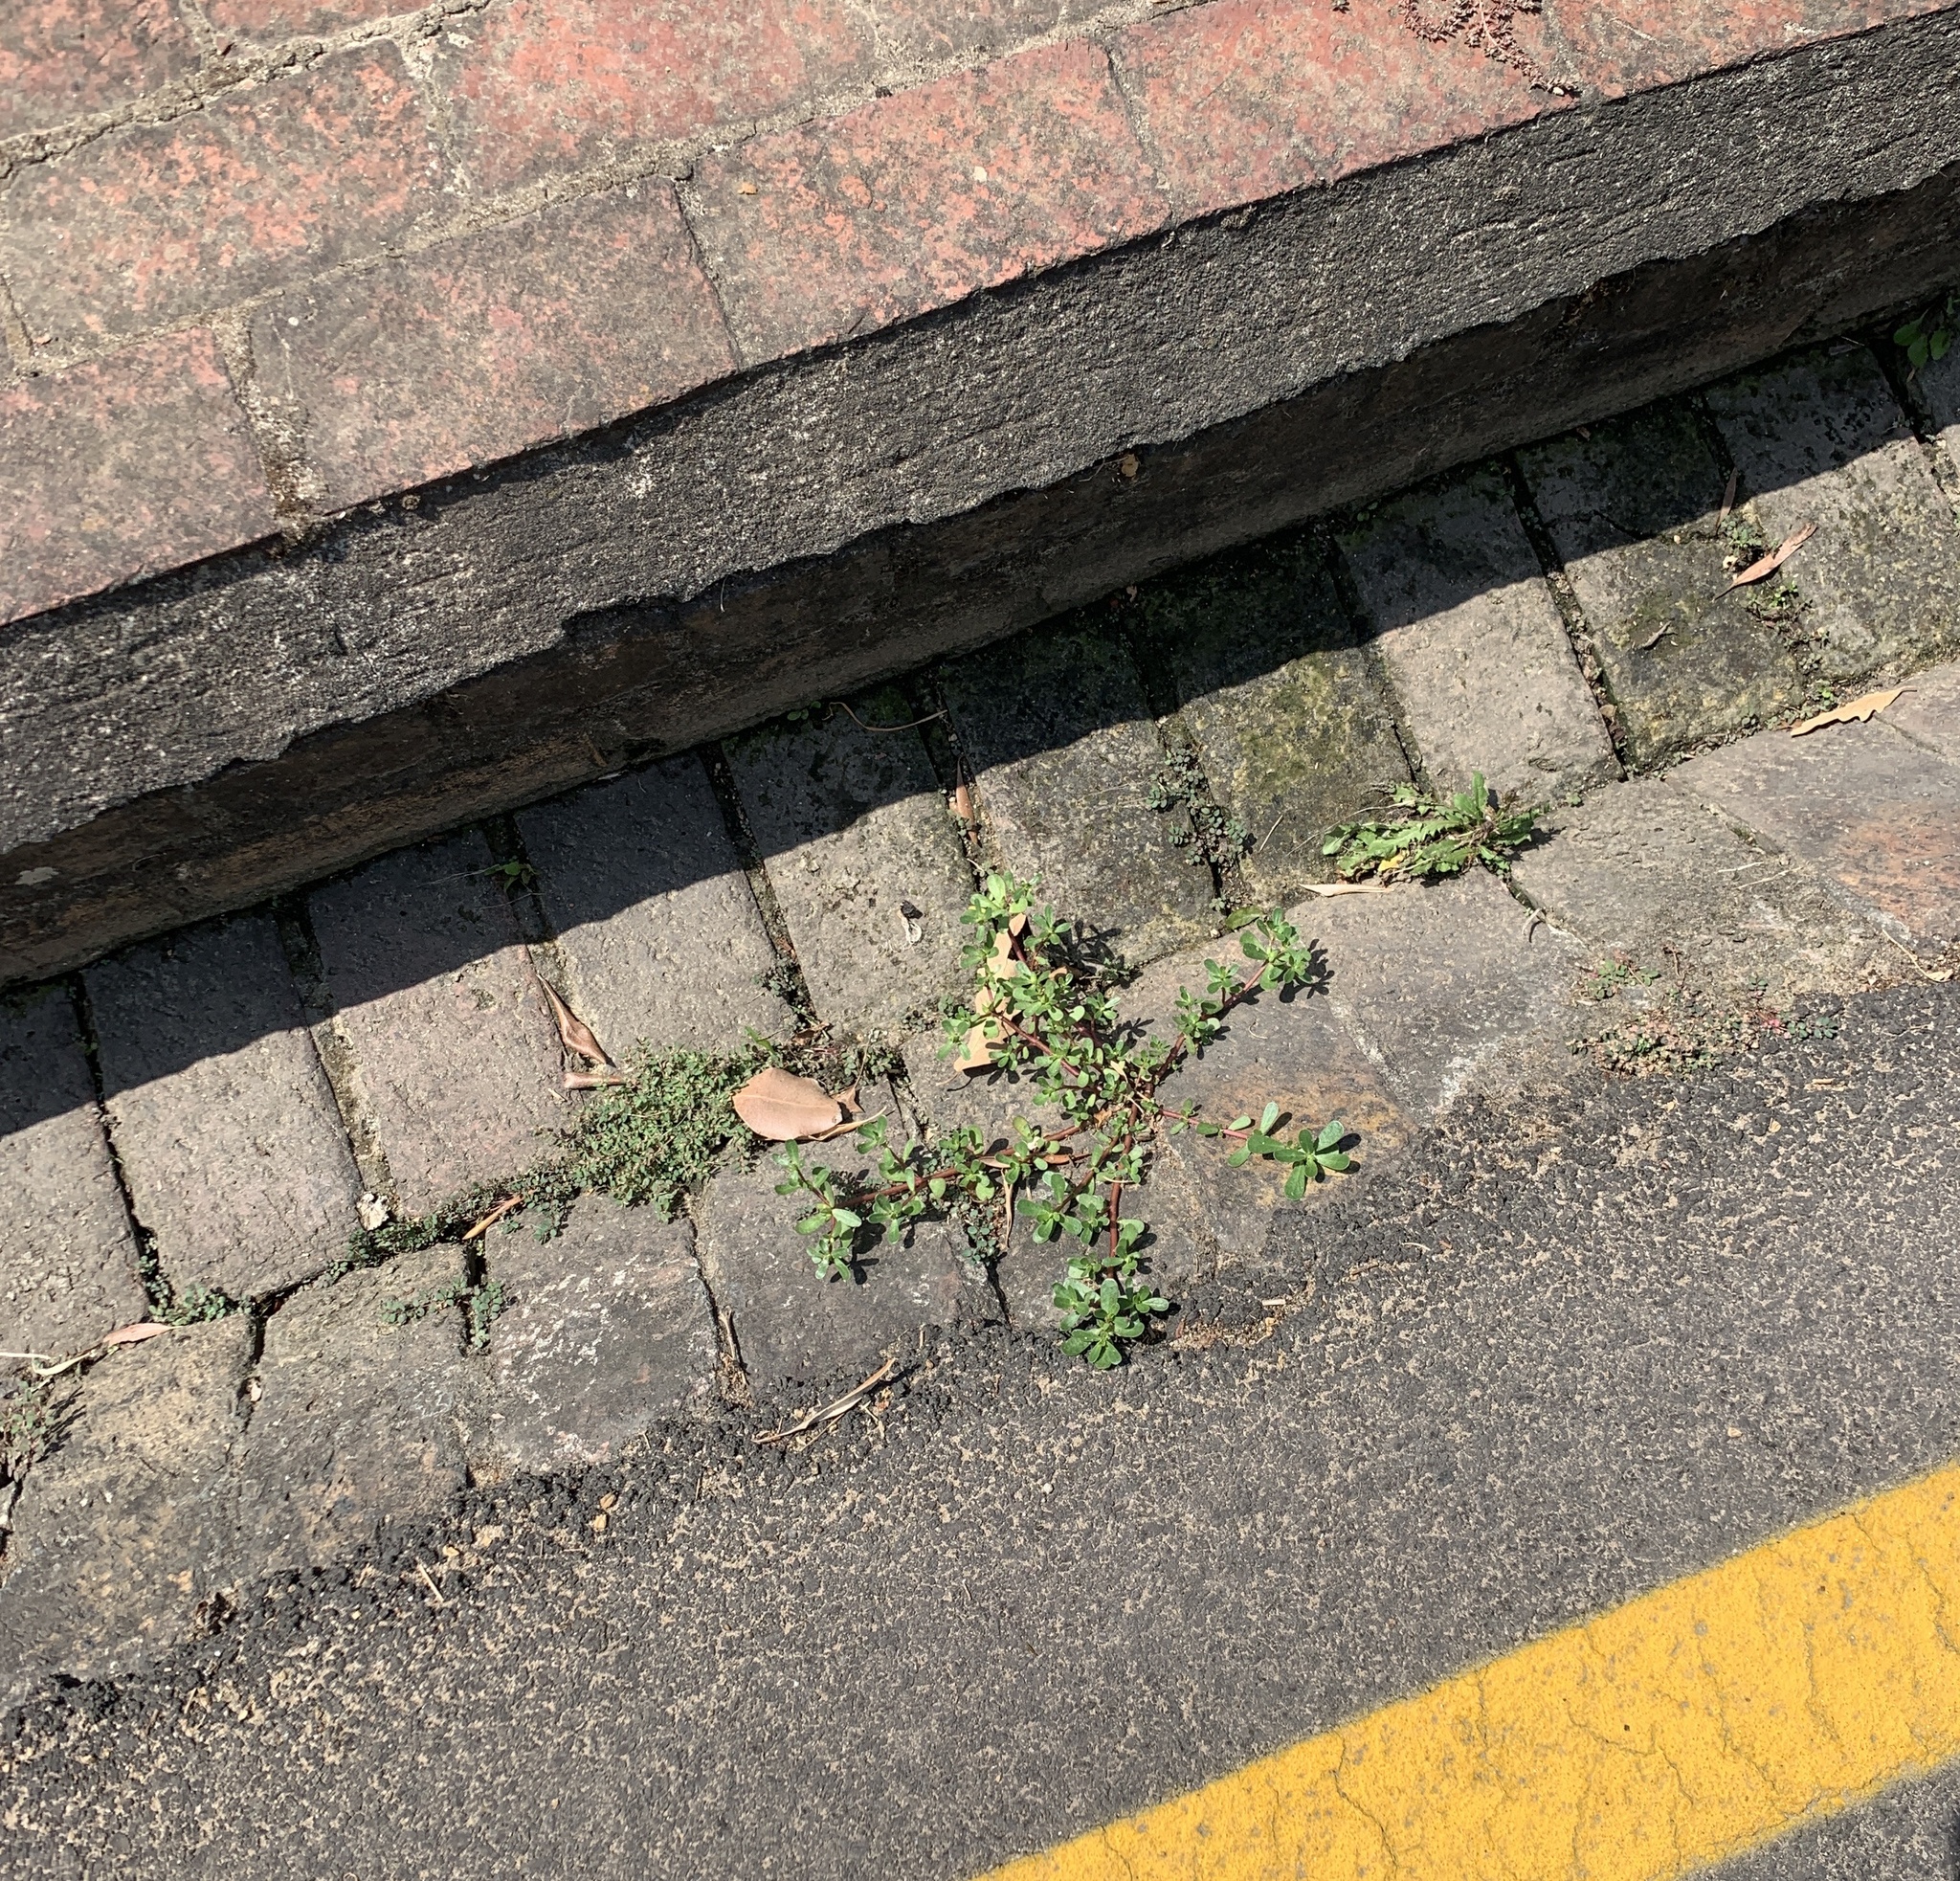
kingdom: Plantae
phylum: Tracheophyta
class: Magnoliopsida
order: Caryophyllales
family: Portulacaceae
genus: Portulaca
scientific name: Portulaca oleracea
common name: Common purslane
